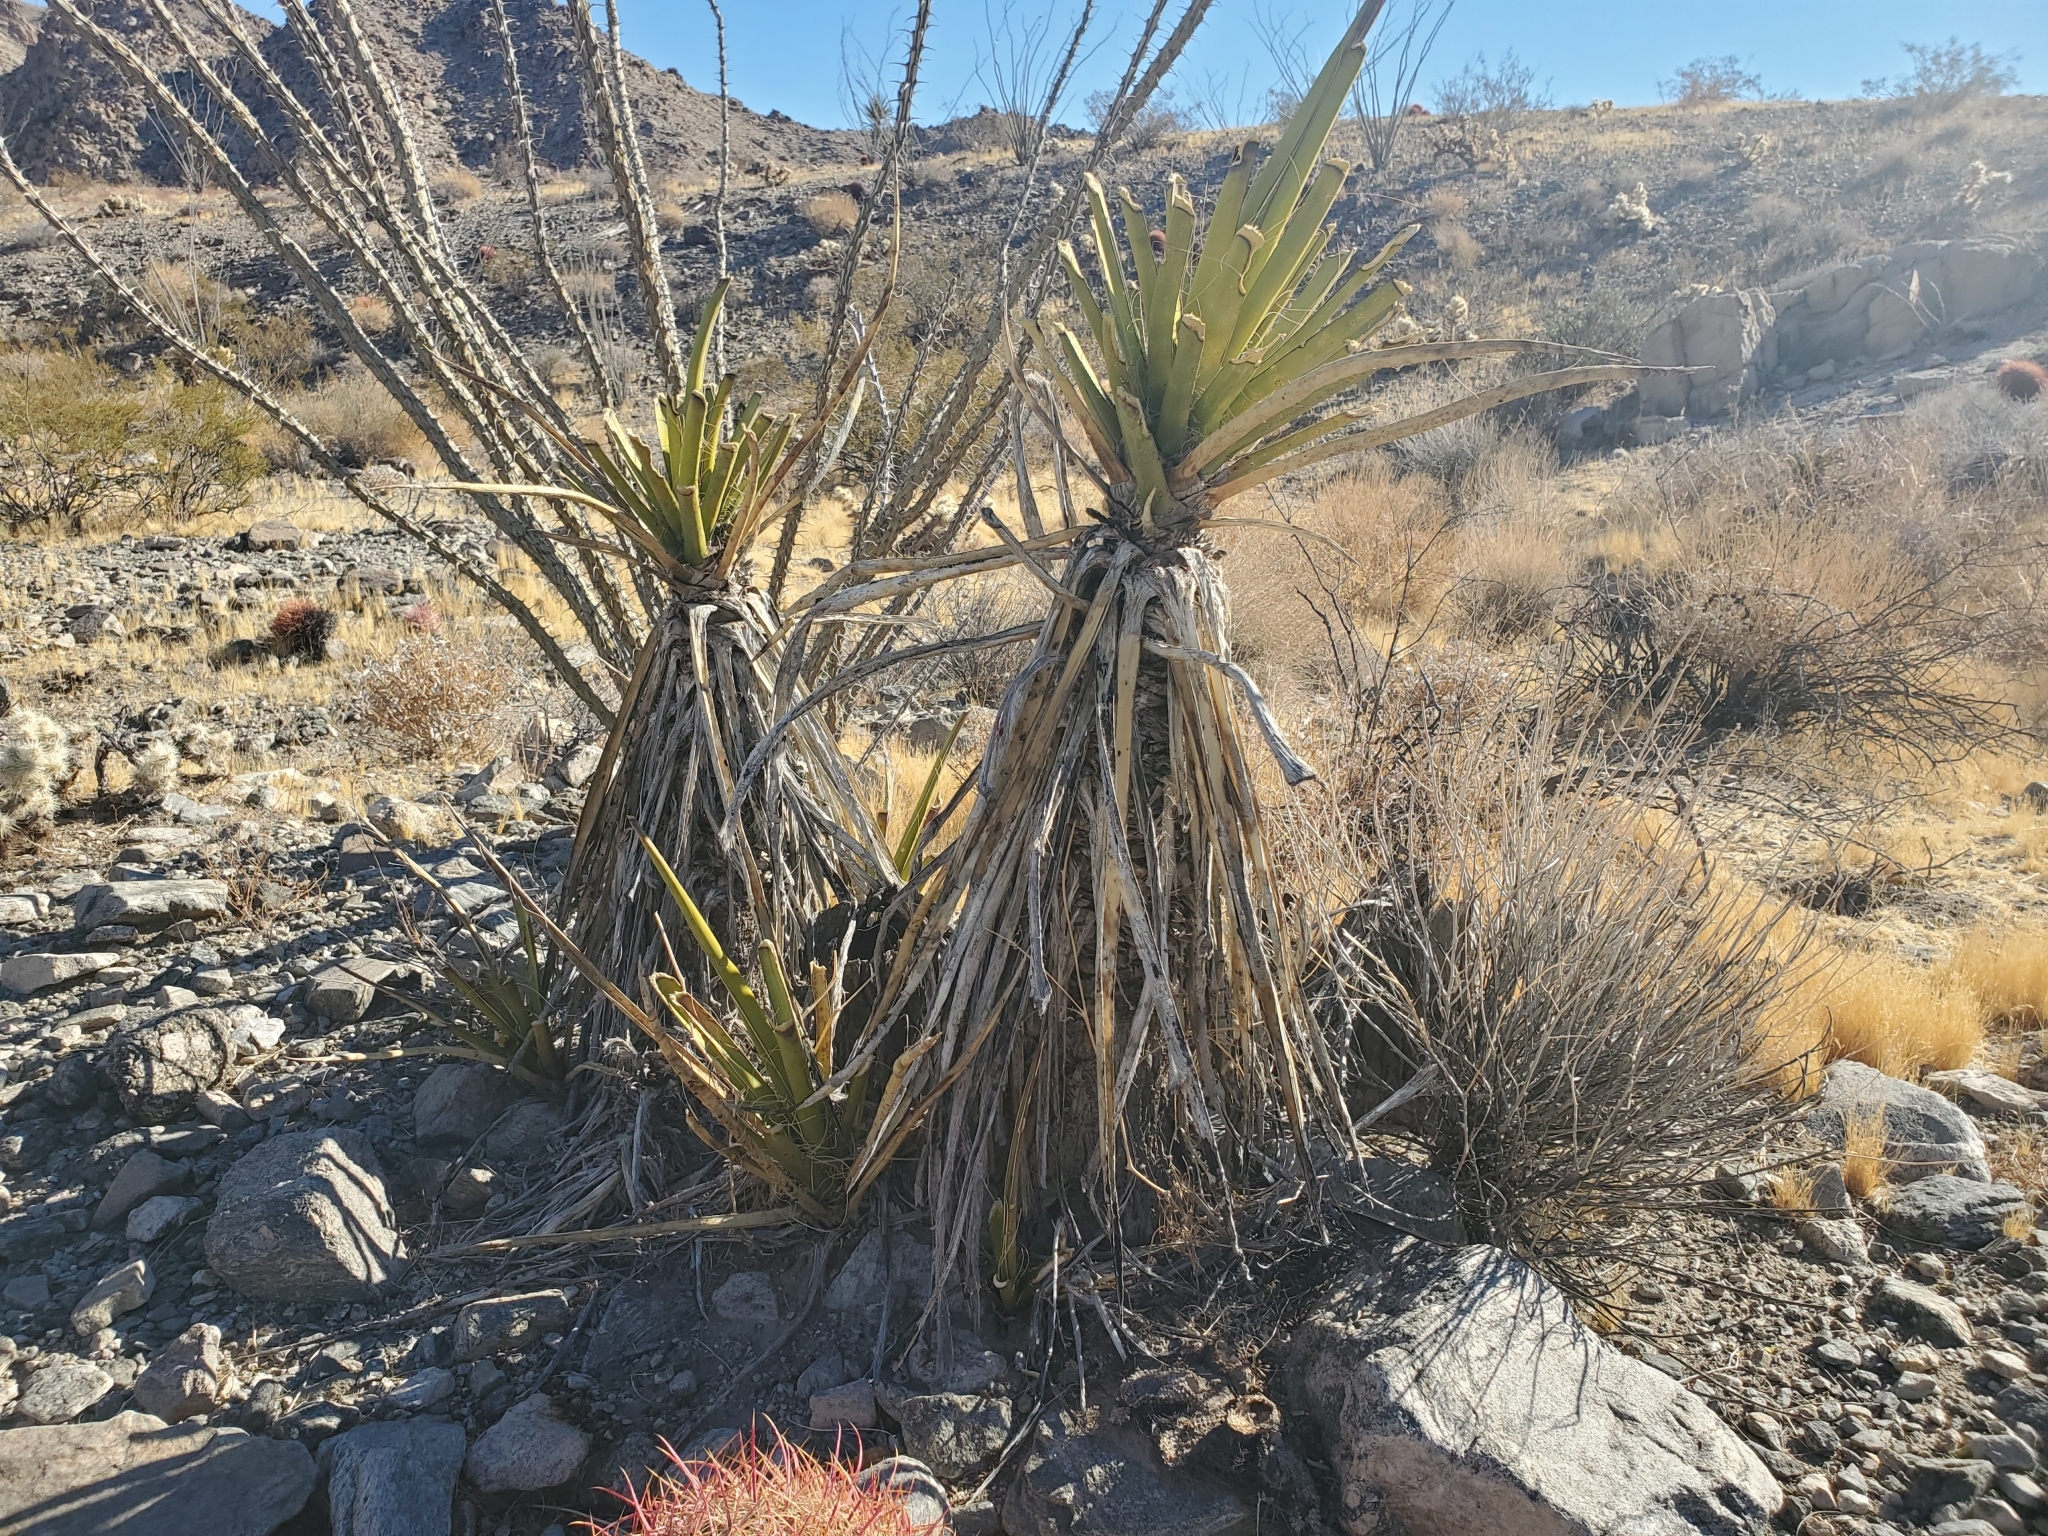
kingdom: Plantae
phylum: Tracheophyta
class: Liliopsida
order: Asparagales
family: Asparagaceae
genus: Yucca
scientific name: Yucca schidigera
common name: Mojave yucca
